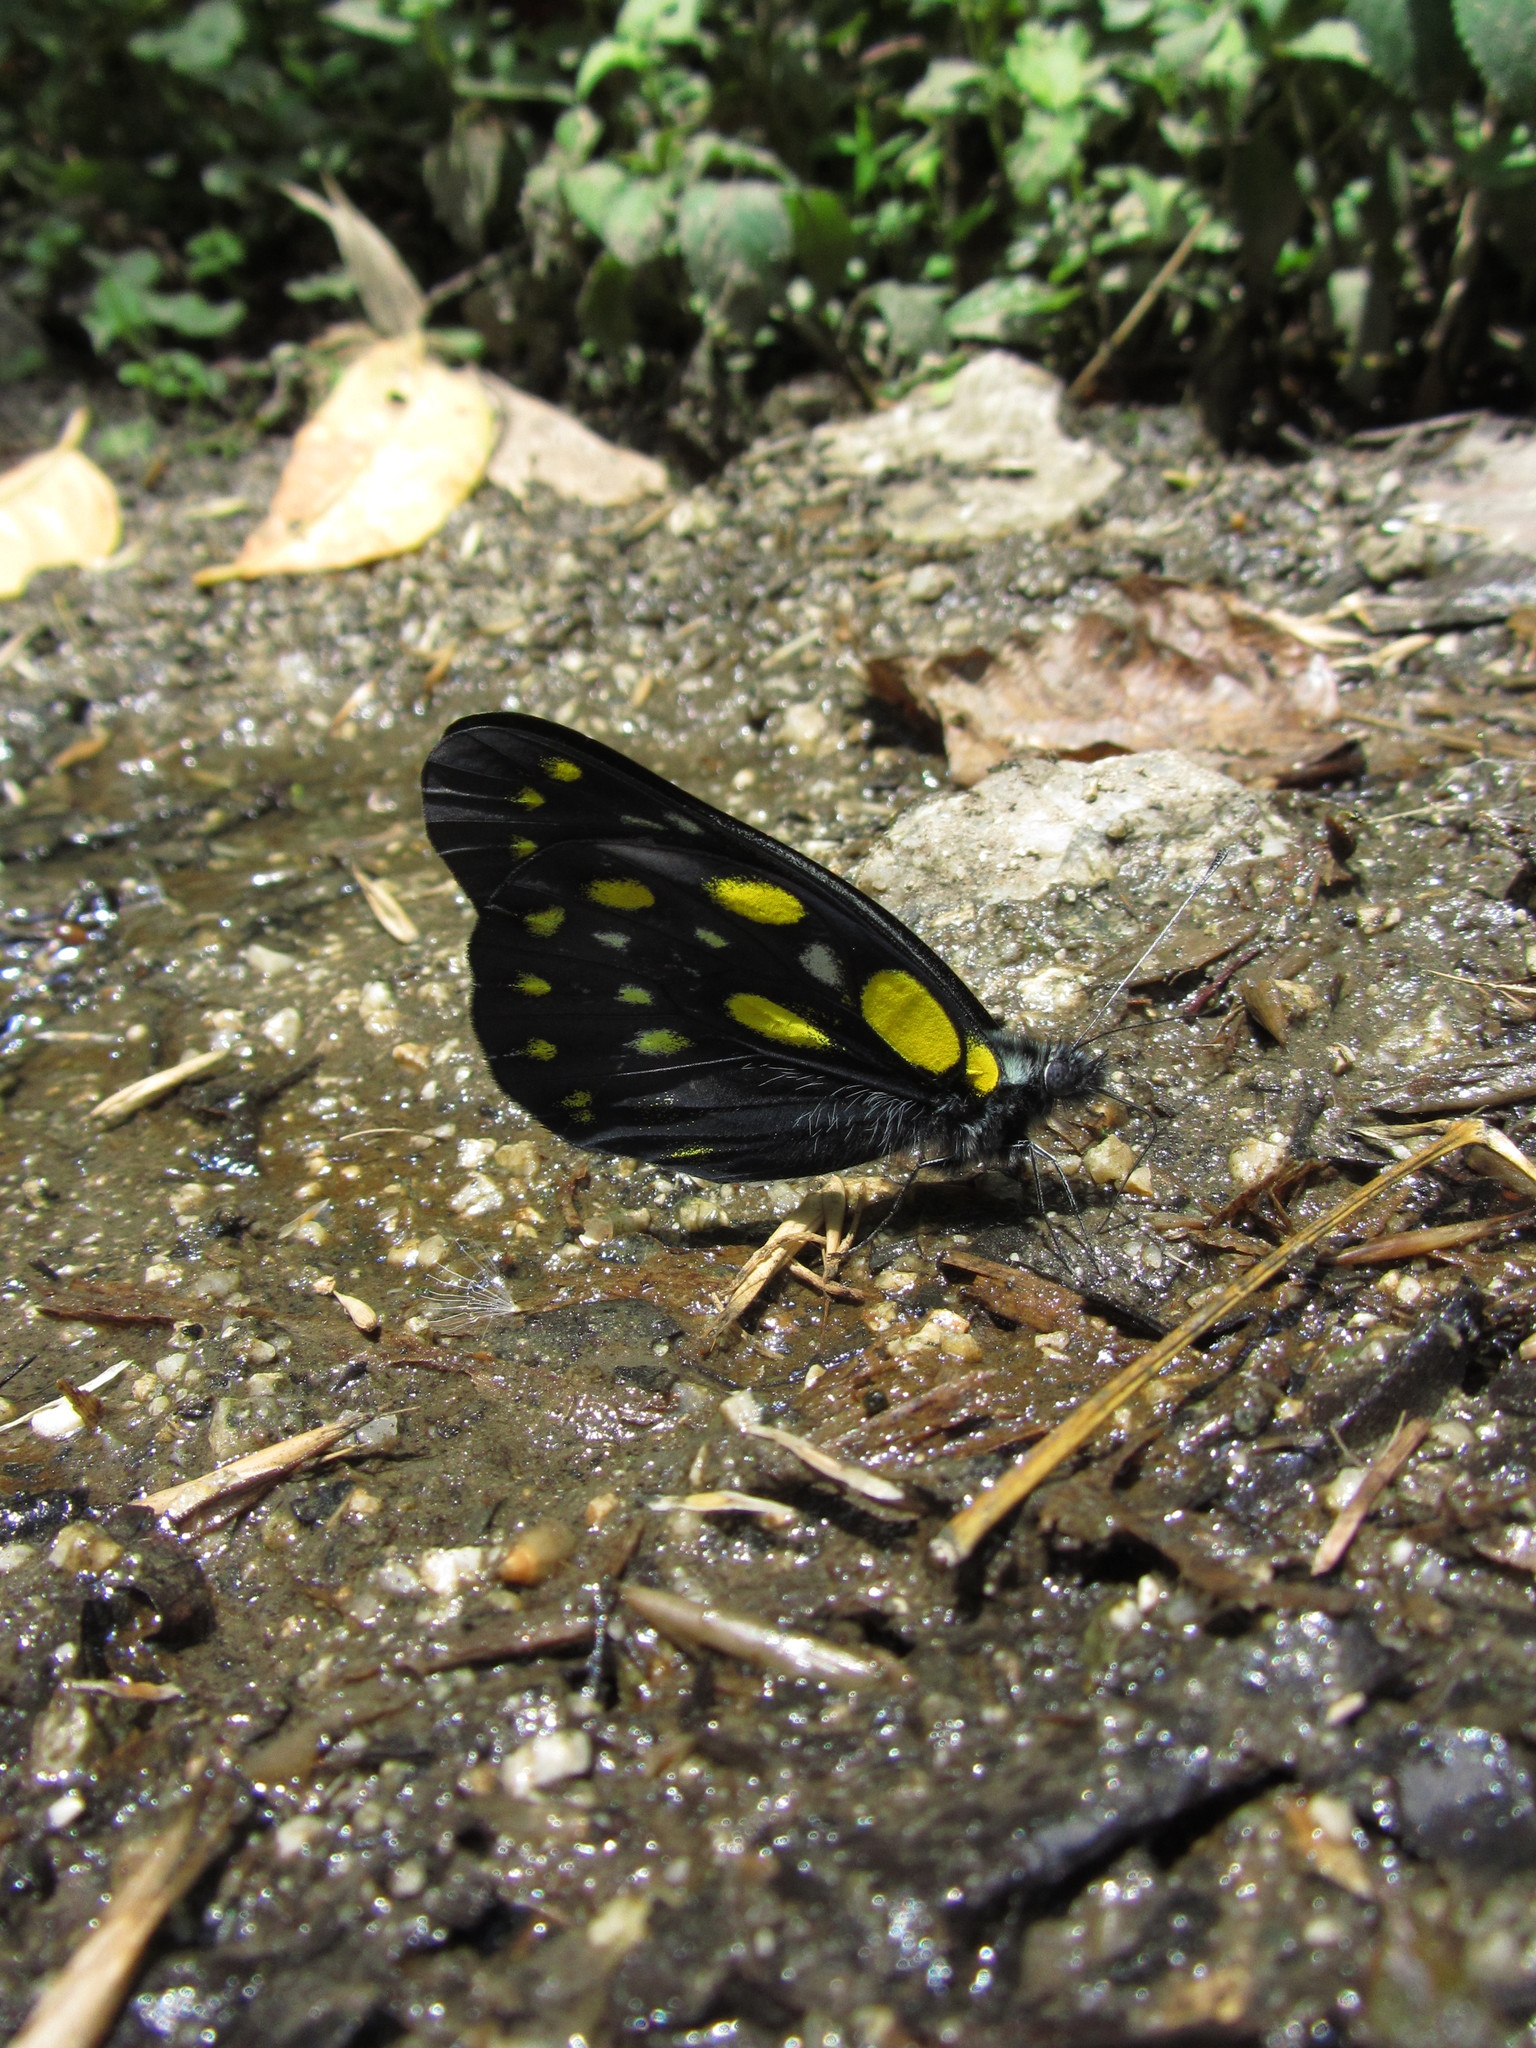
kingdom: Animalia
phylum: Arthropoda
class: Insecta
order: Lepidoptera
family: Pieridae
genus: Delias
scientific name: Delias belladonna
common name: Hill jezebel
